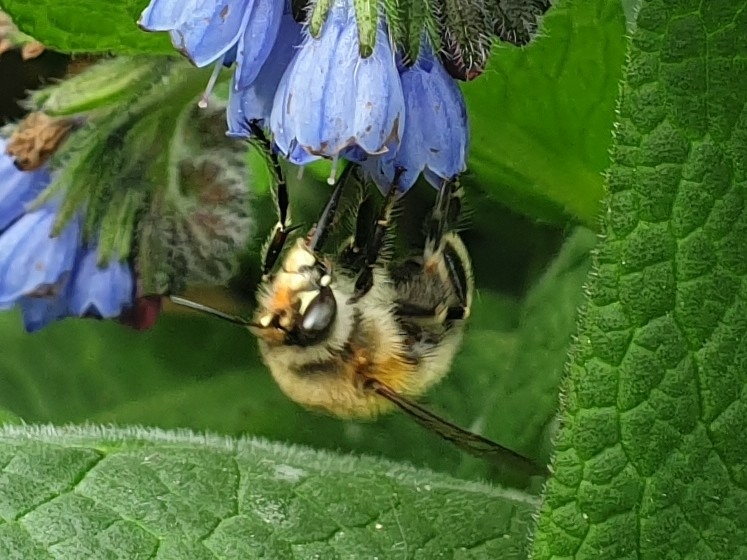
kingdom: Animalia
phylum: Arthropoda
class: Insecta
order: Hymenoptera
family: Apidae
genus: Anthophora
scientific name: Anthophora plumipes
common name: Hairy-footed flower bee
